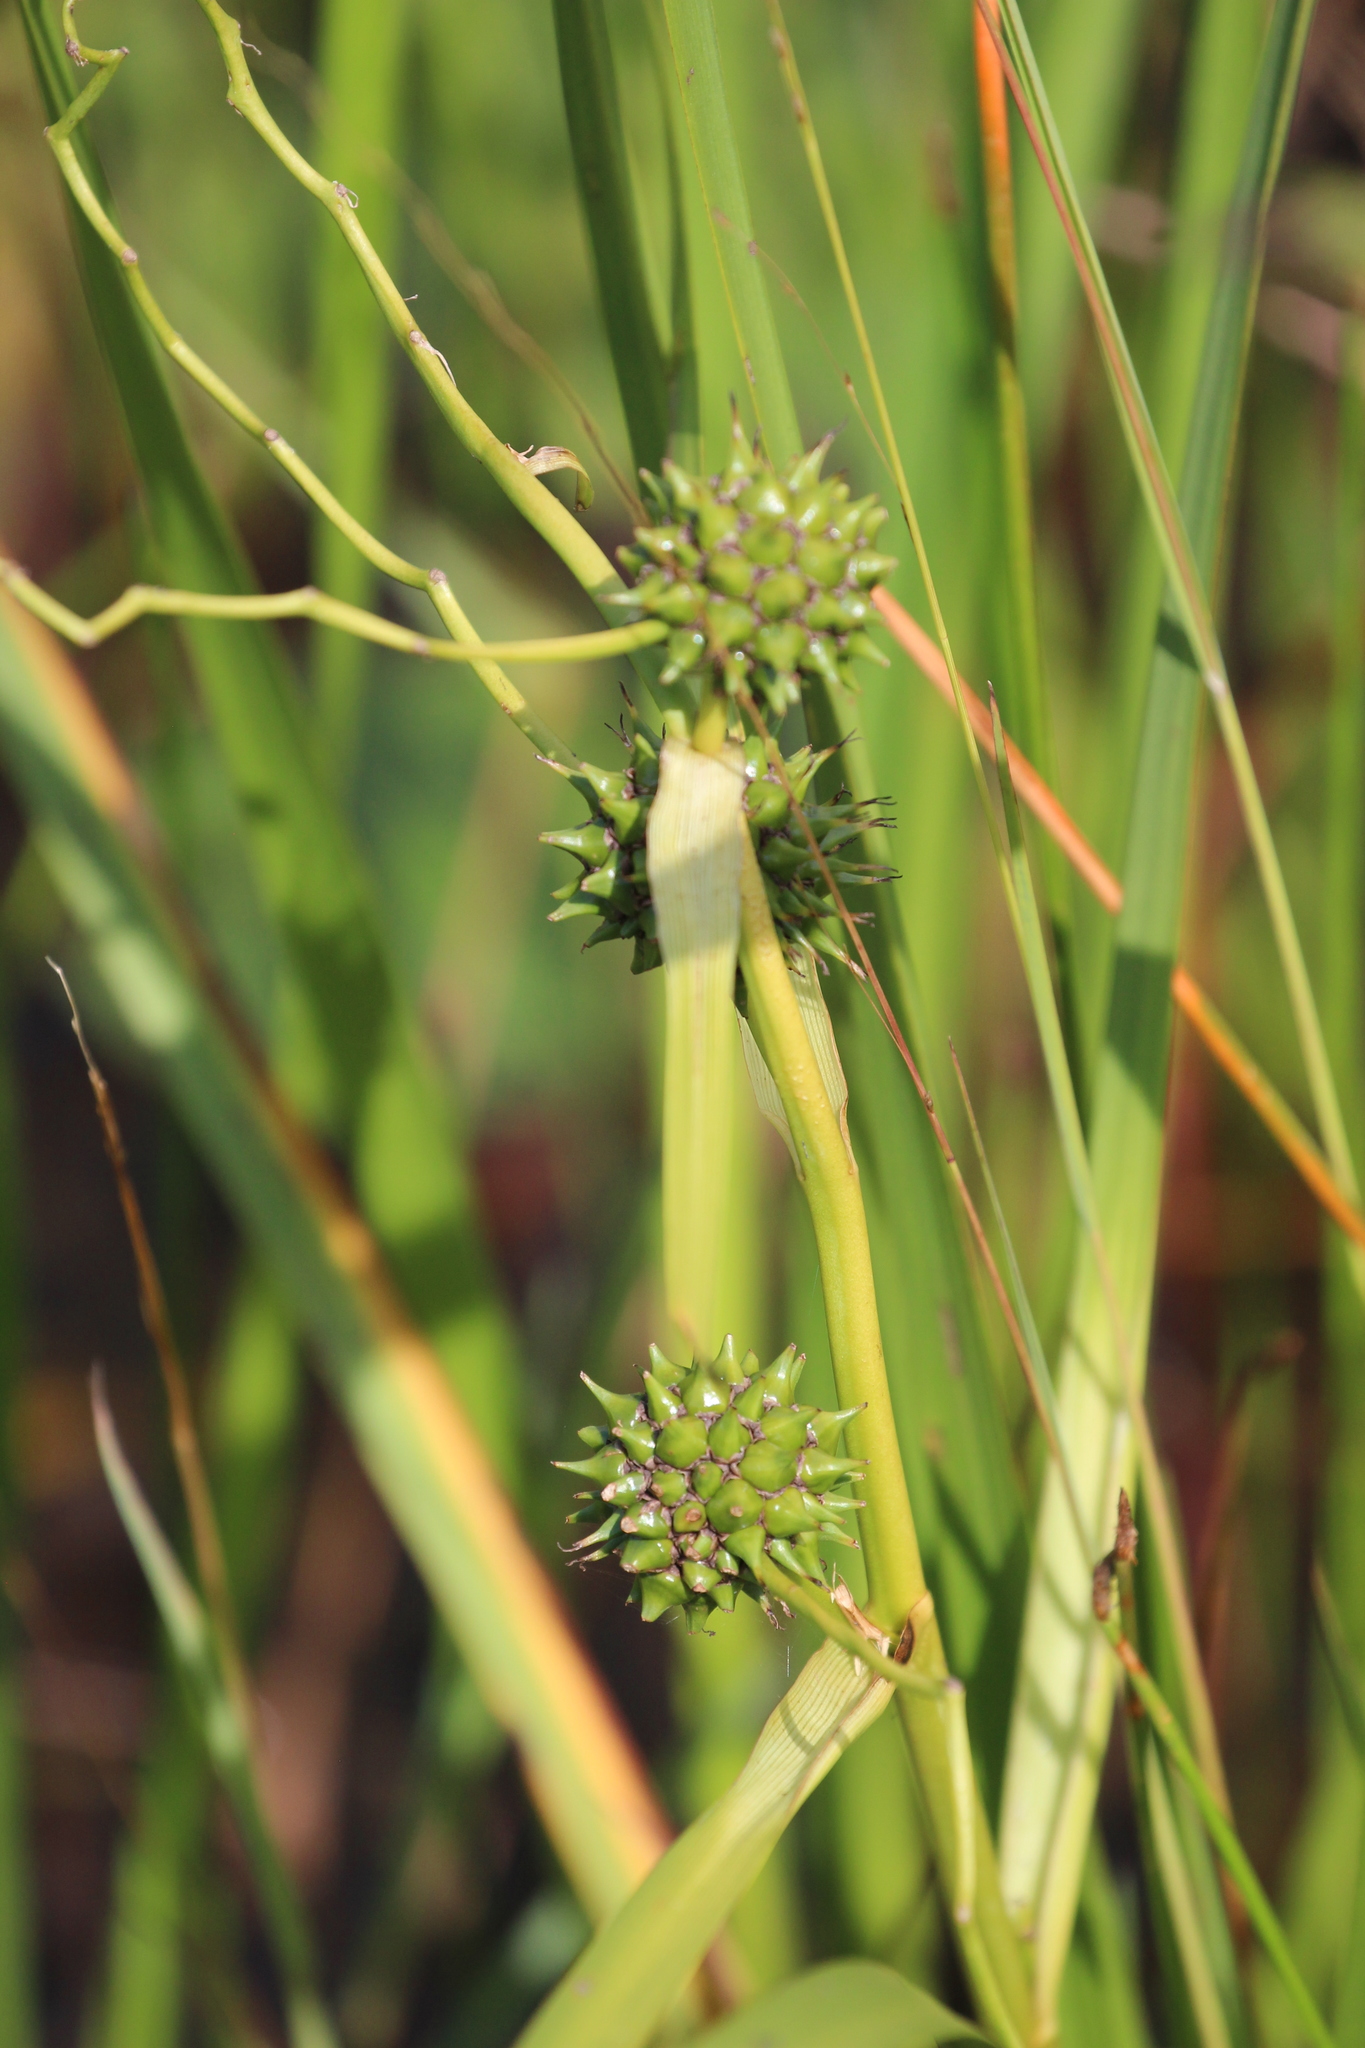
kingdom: Plantae
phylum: Tracheophyta
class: Liliopsida
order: Poales
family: Typhaceae
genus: Sparganium
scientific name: Sparganium eurycarpum
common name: Broad-fruited burreed
